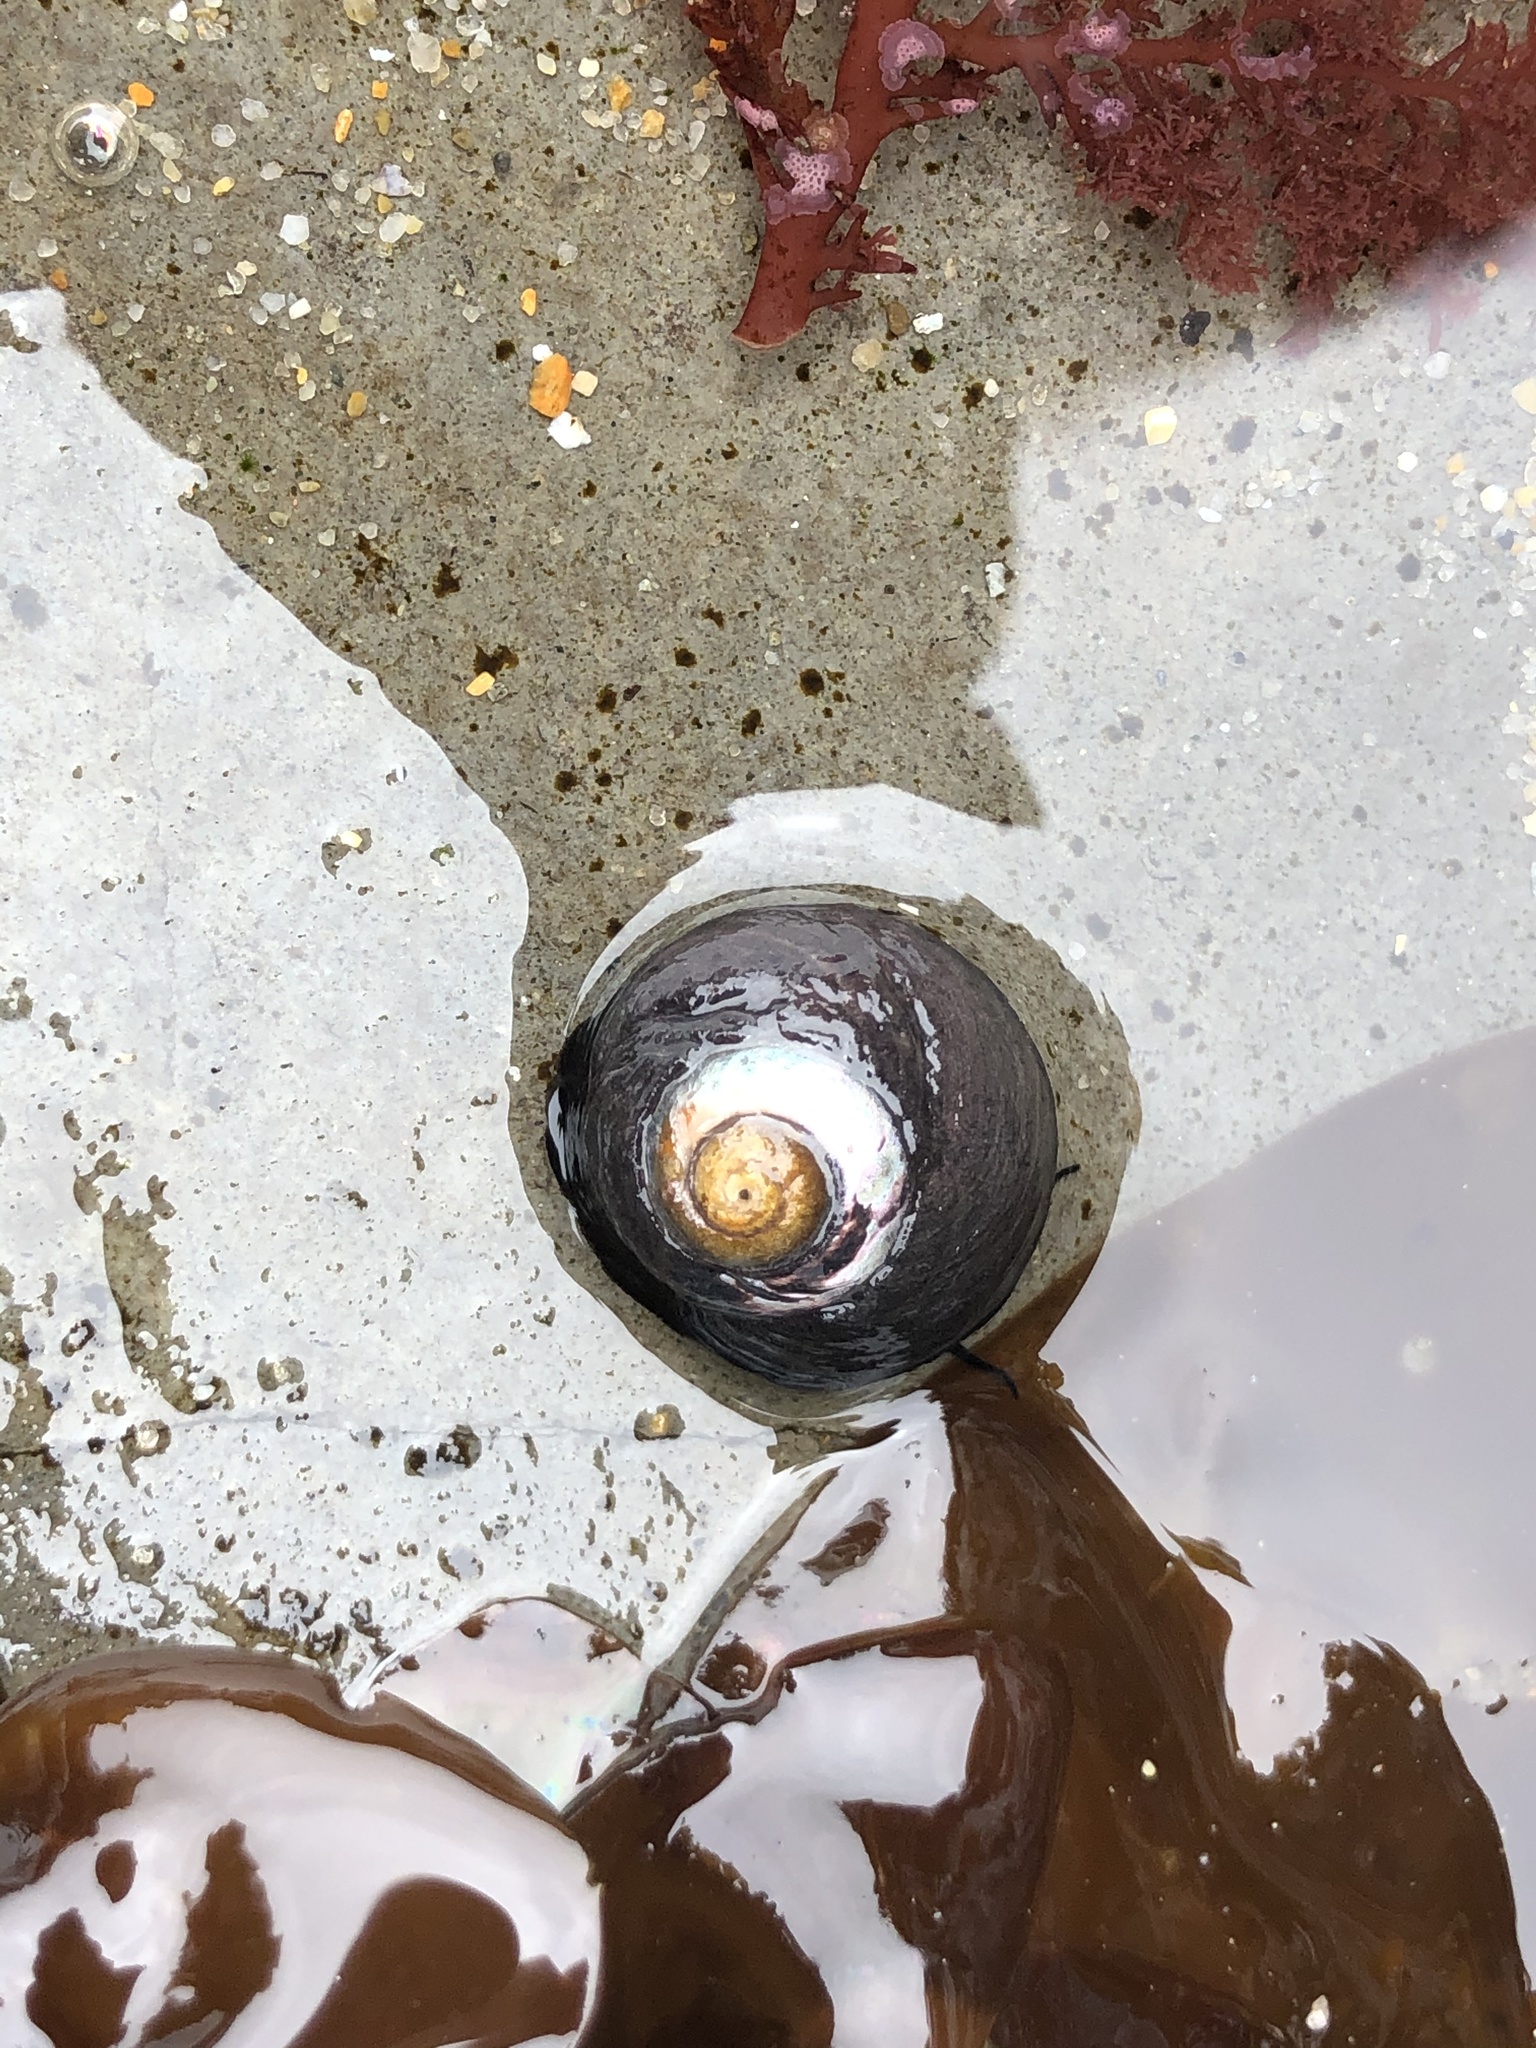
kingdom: Animalia
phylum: Mollusca
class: Gastropoda
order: Trochida
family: Tegulidae
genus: Tegula
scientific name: Tegula funebralis
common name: Black tegula
